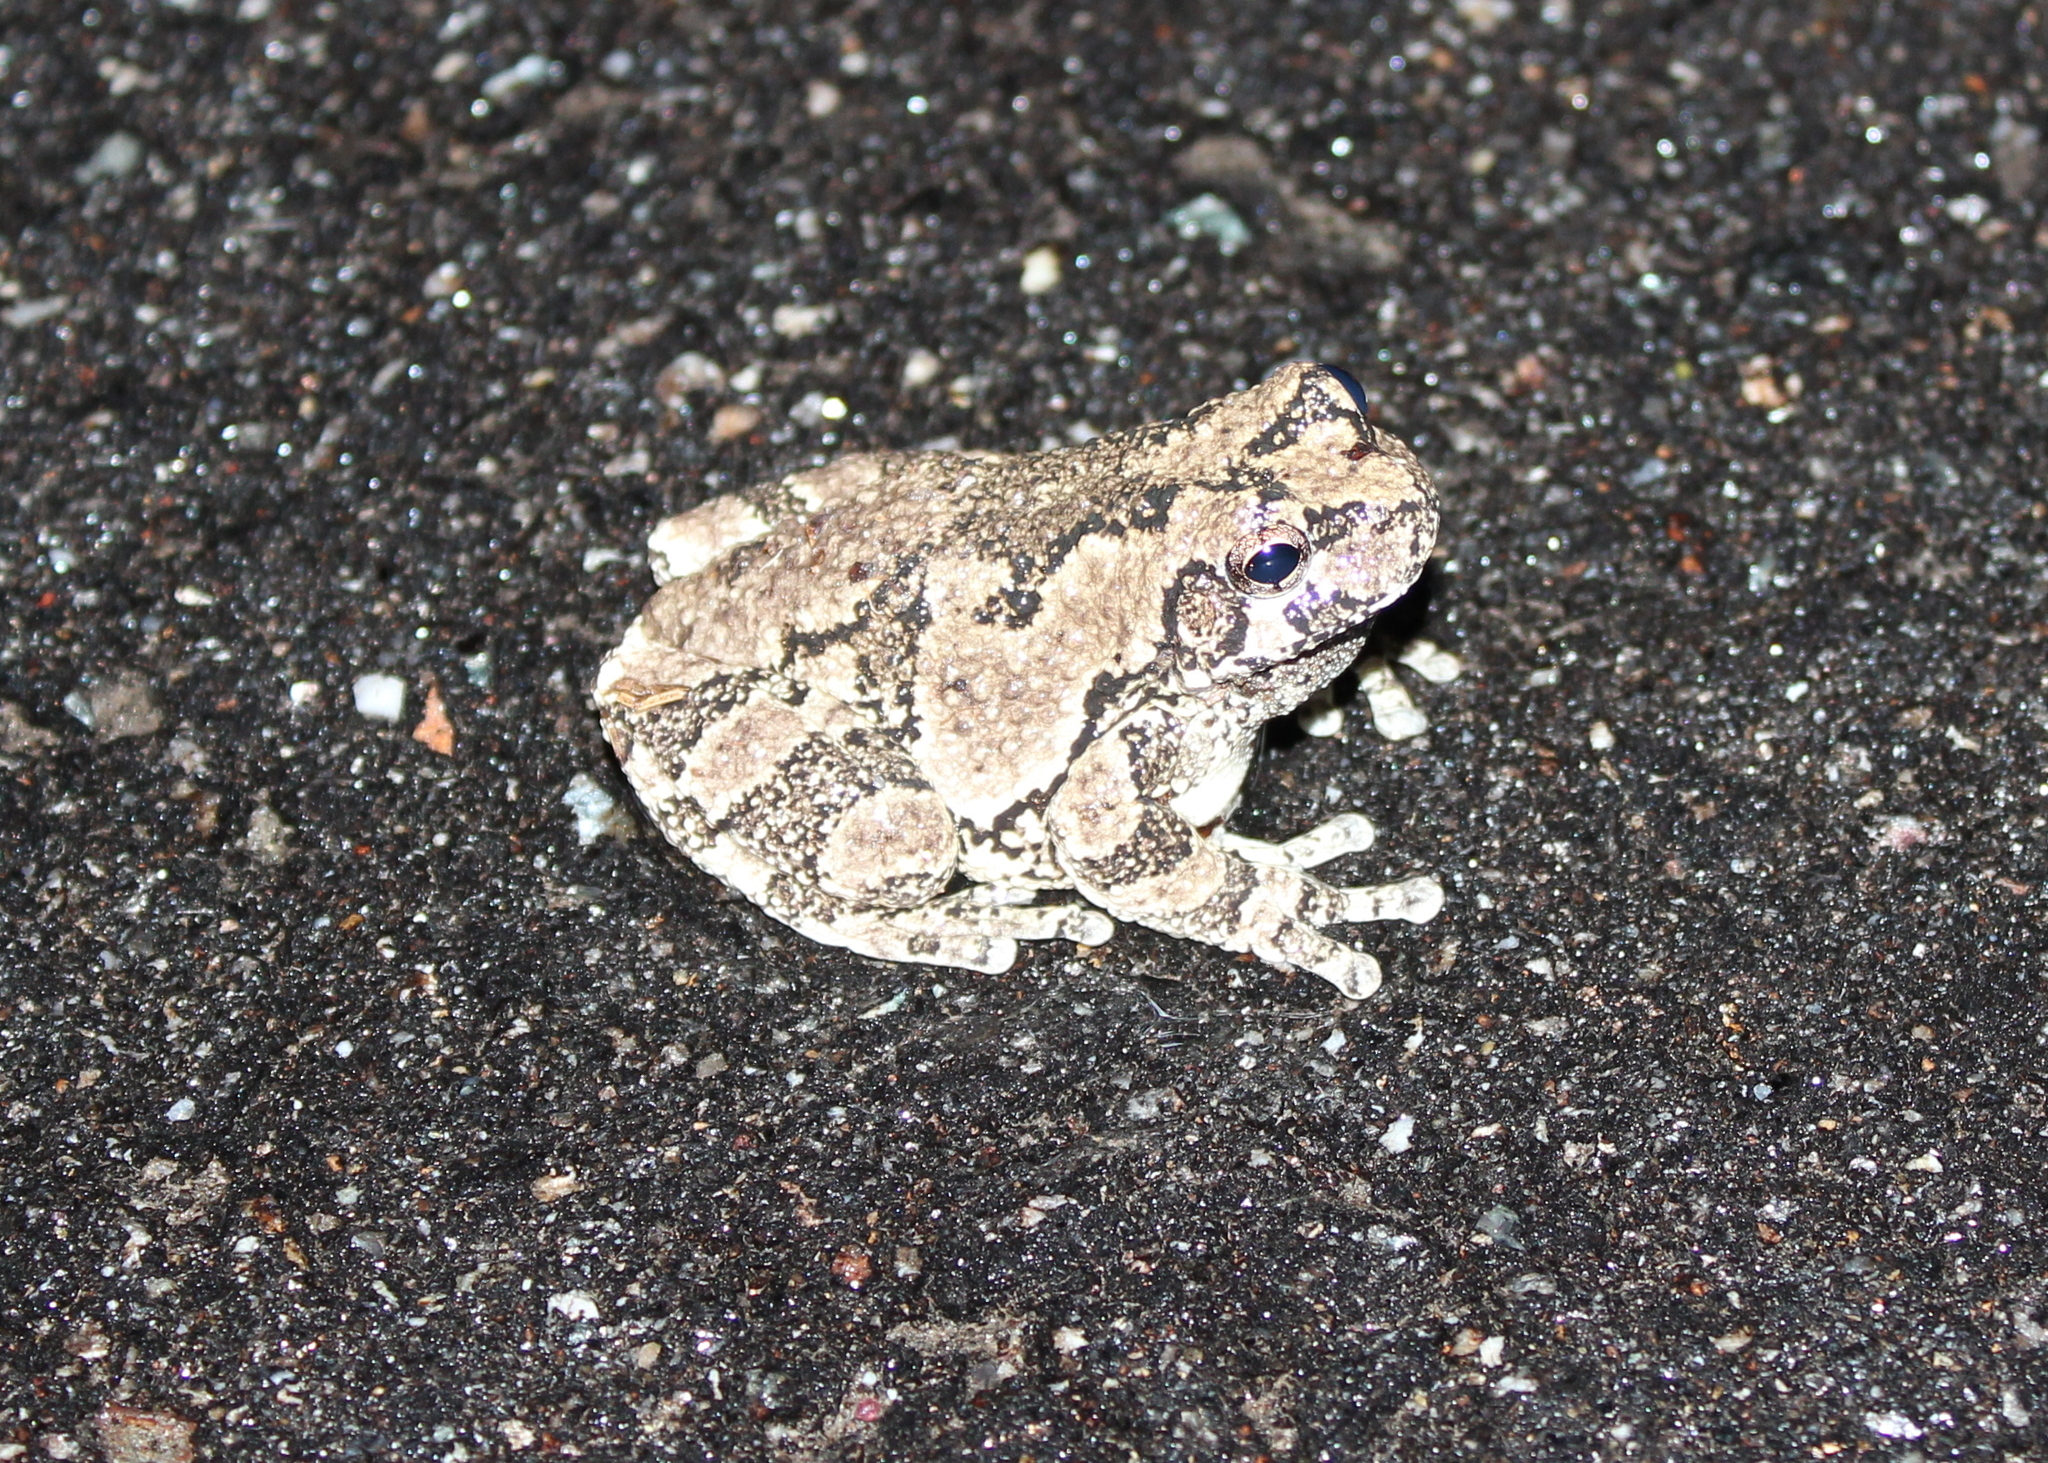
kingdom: Animalia
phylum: Chordata
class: Amphibia
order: Anura
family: Hylidae
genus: Dryophytes
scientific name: Dryophytes versicolor
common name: Gray treefrog
